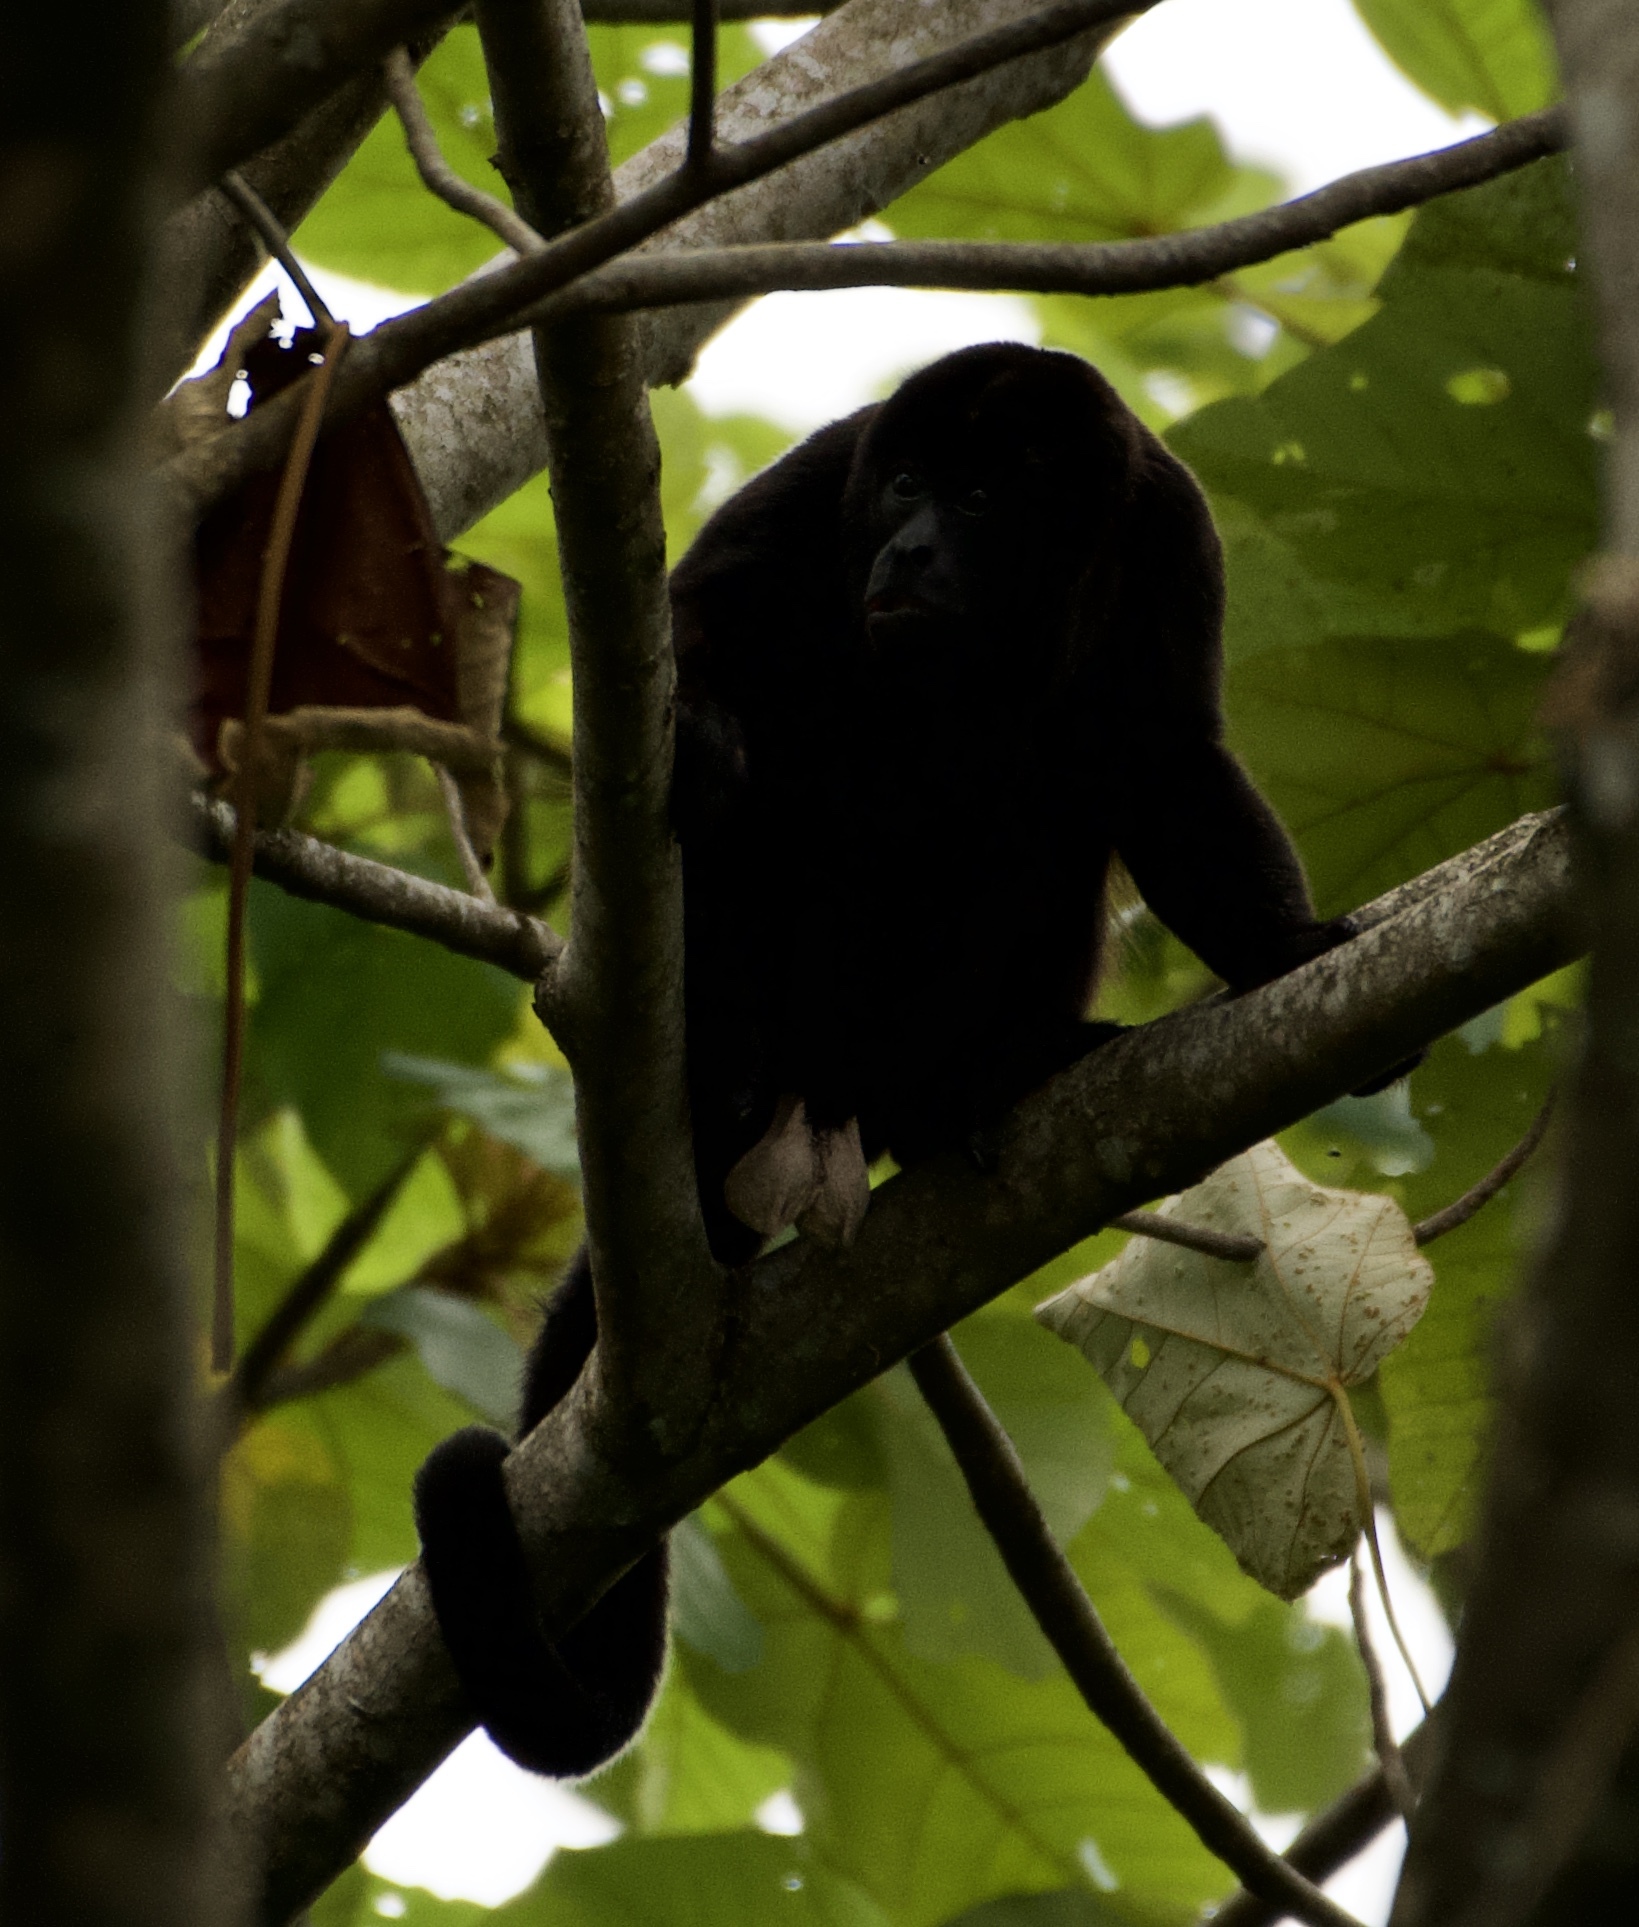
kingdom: Animalia
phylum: Chordata
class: Mammalia
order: Primates
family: Atelidae
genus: Alouatta
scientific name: Alouatta palliata
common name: Mantled howler
